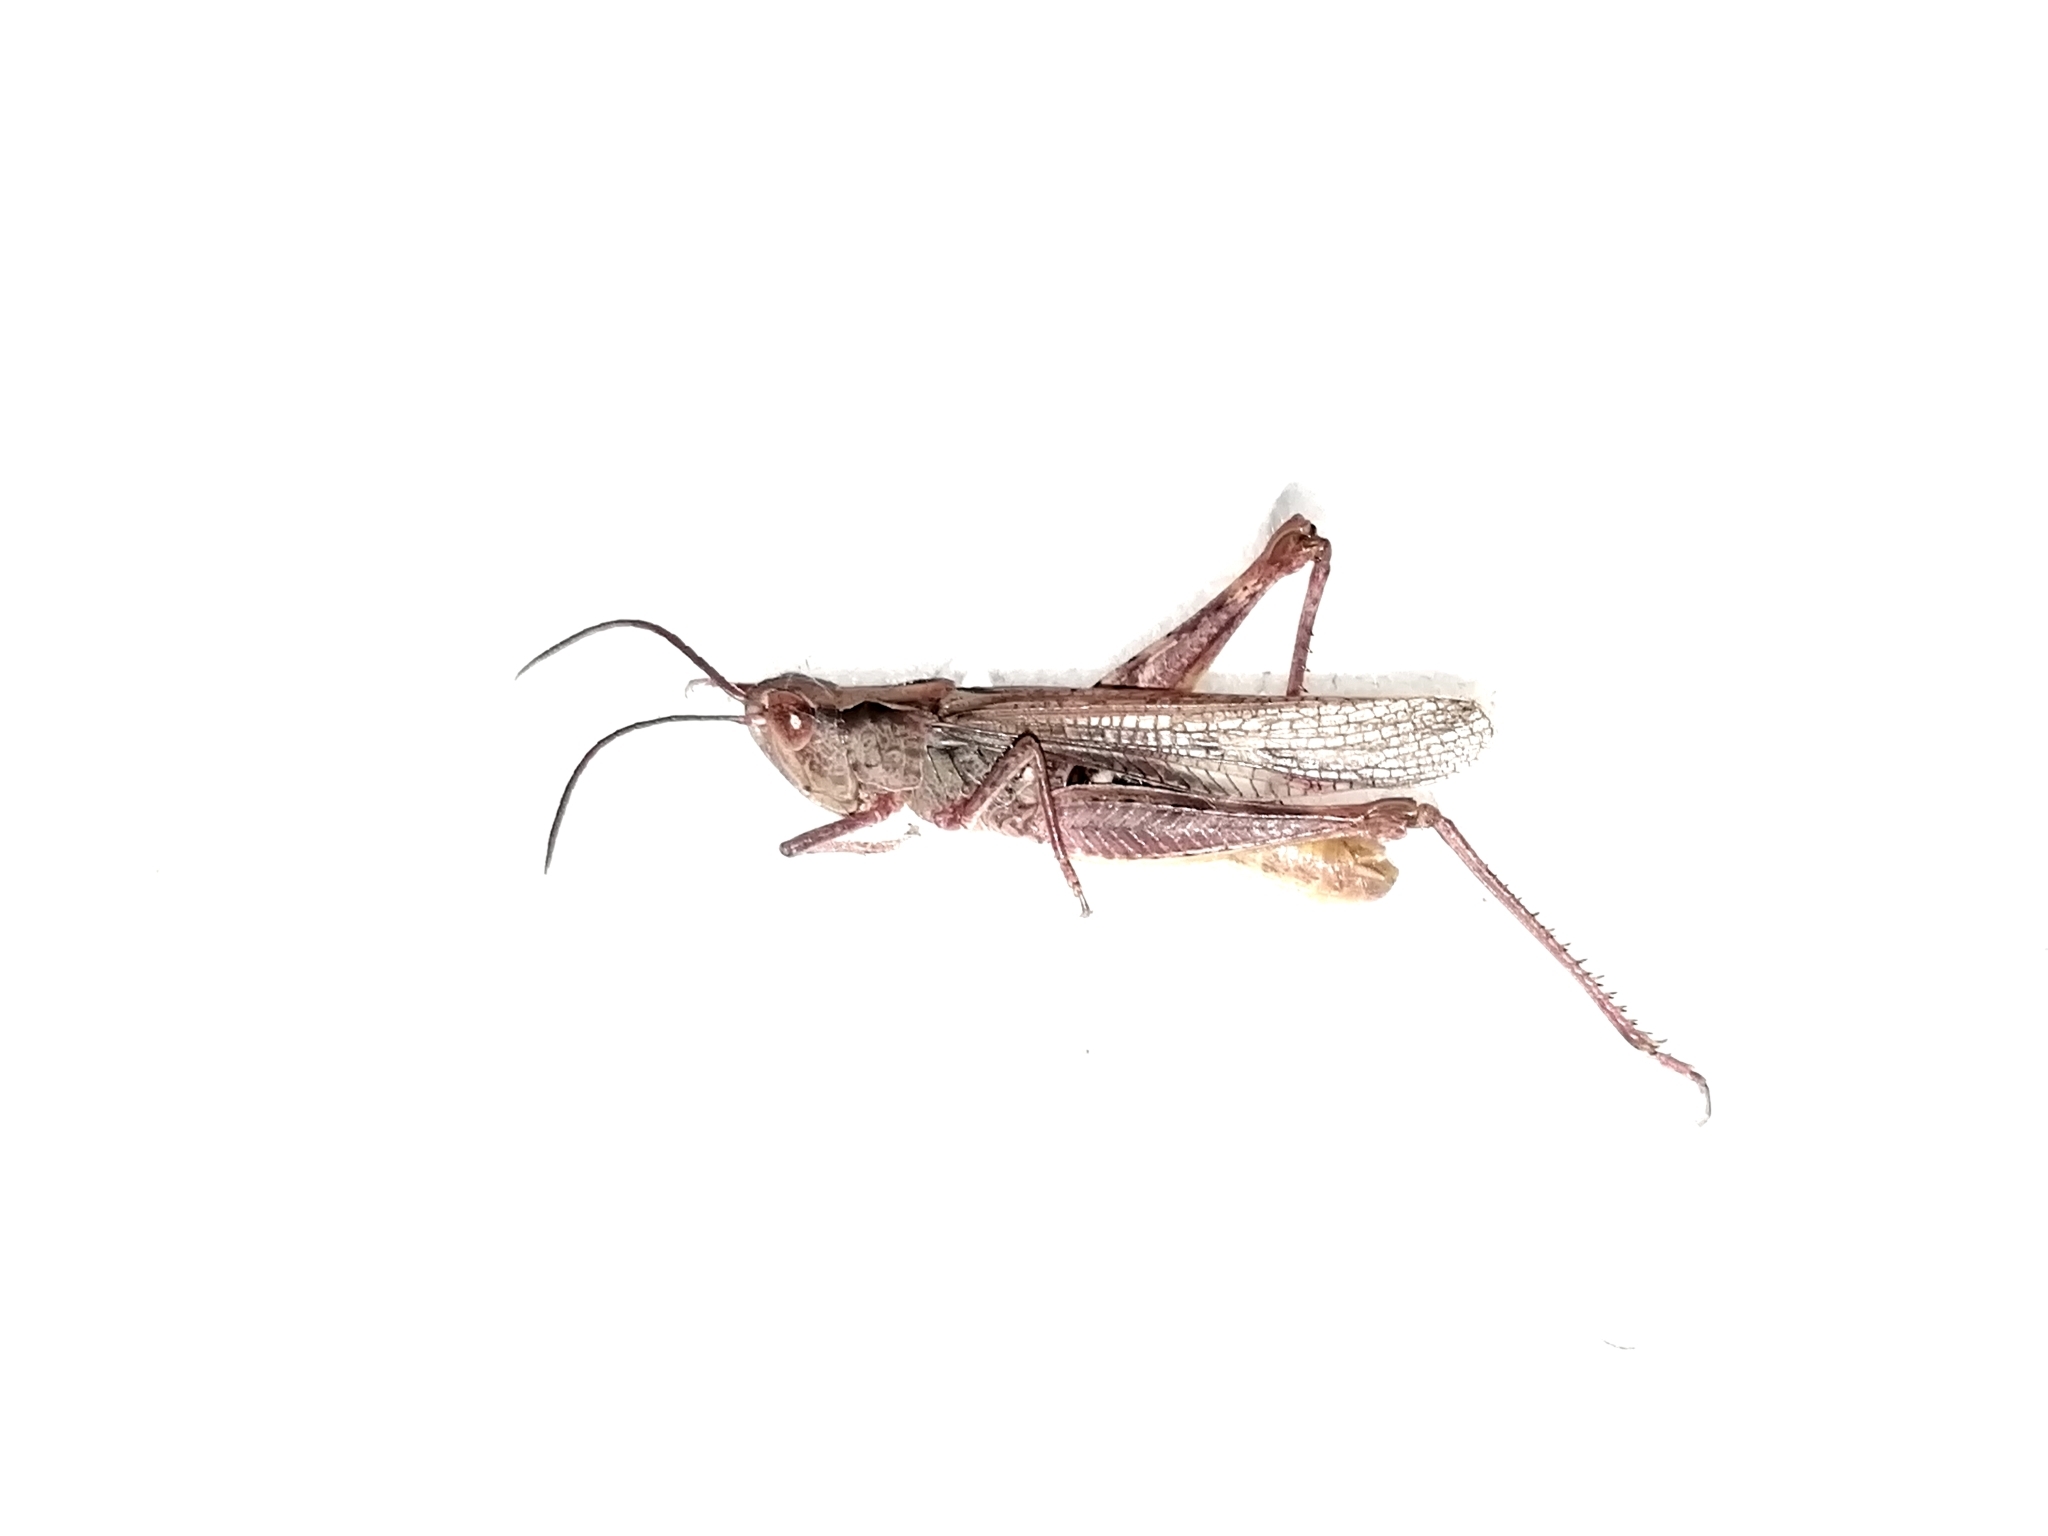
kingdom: Animalia
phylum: Arthropoda
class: Insecta
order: Orthoptera
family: Acrididae
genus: Chorthippus
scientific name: Chorthippus miramae
